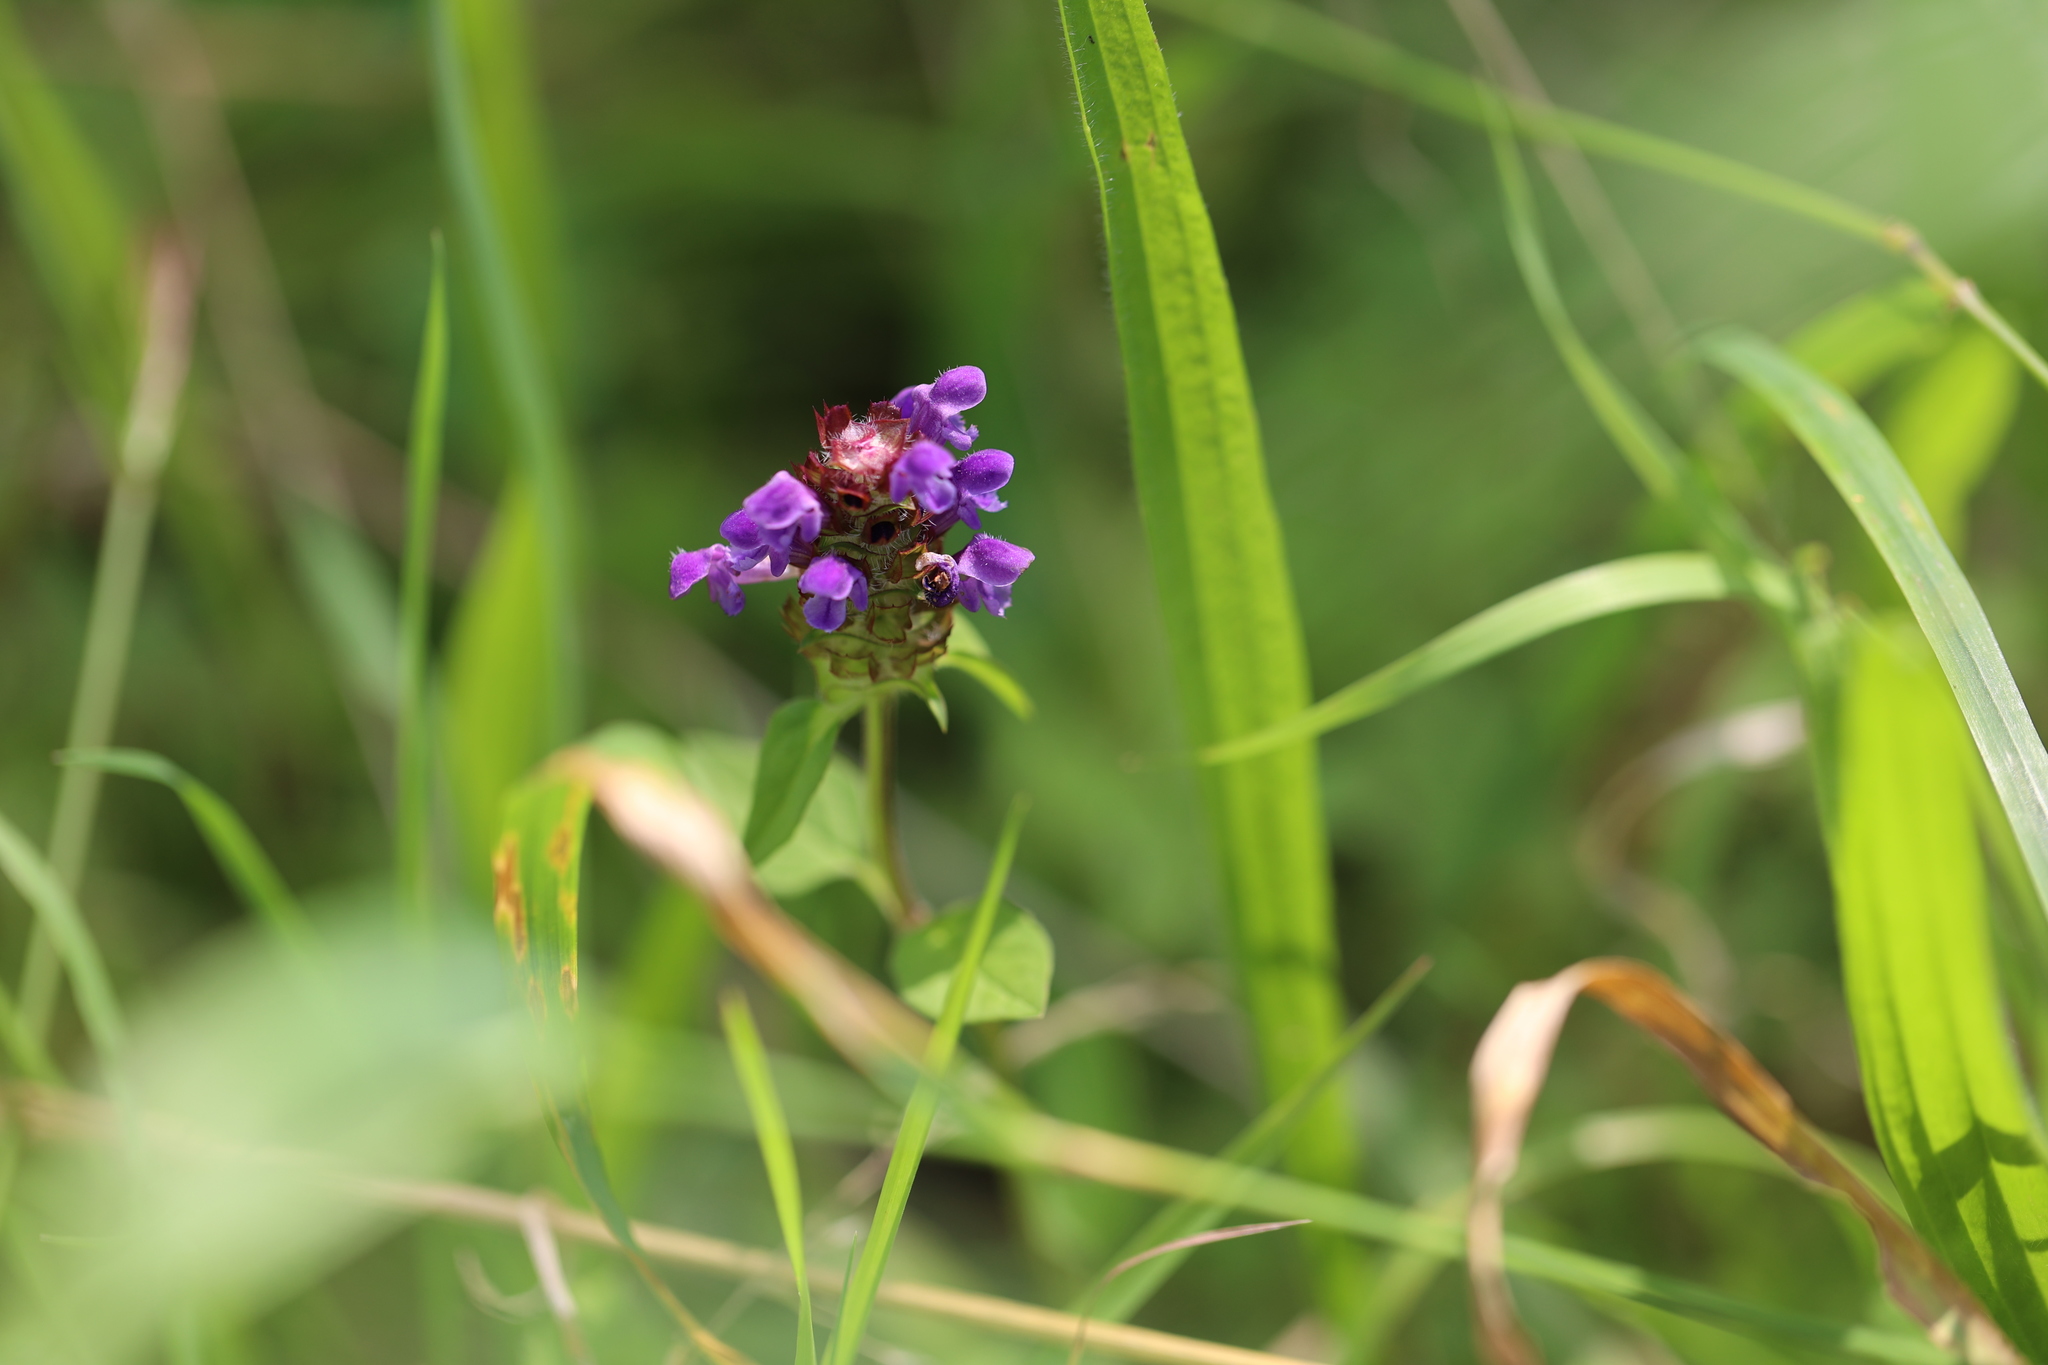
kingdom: Plantae
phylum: Tracheophyta
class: Magnoliopsida
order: Lamiales
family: Lamiaceae
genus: Prunella
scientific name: Prunella vulgaris
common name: Heal-all
